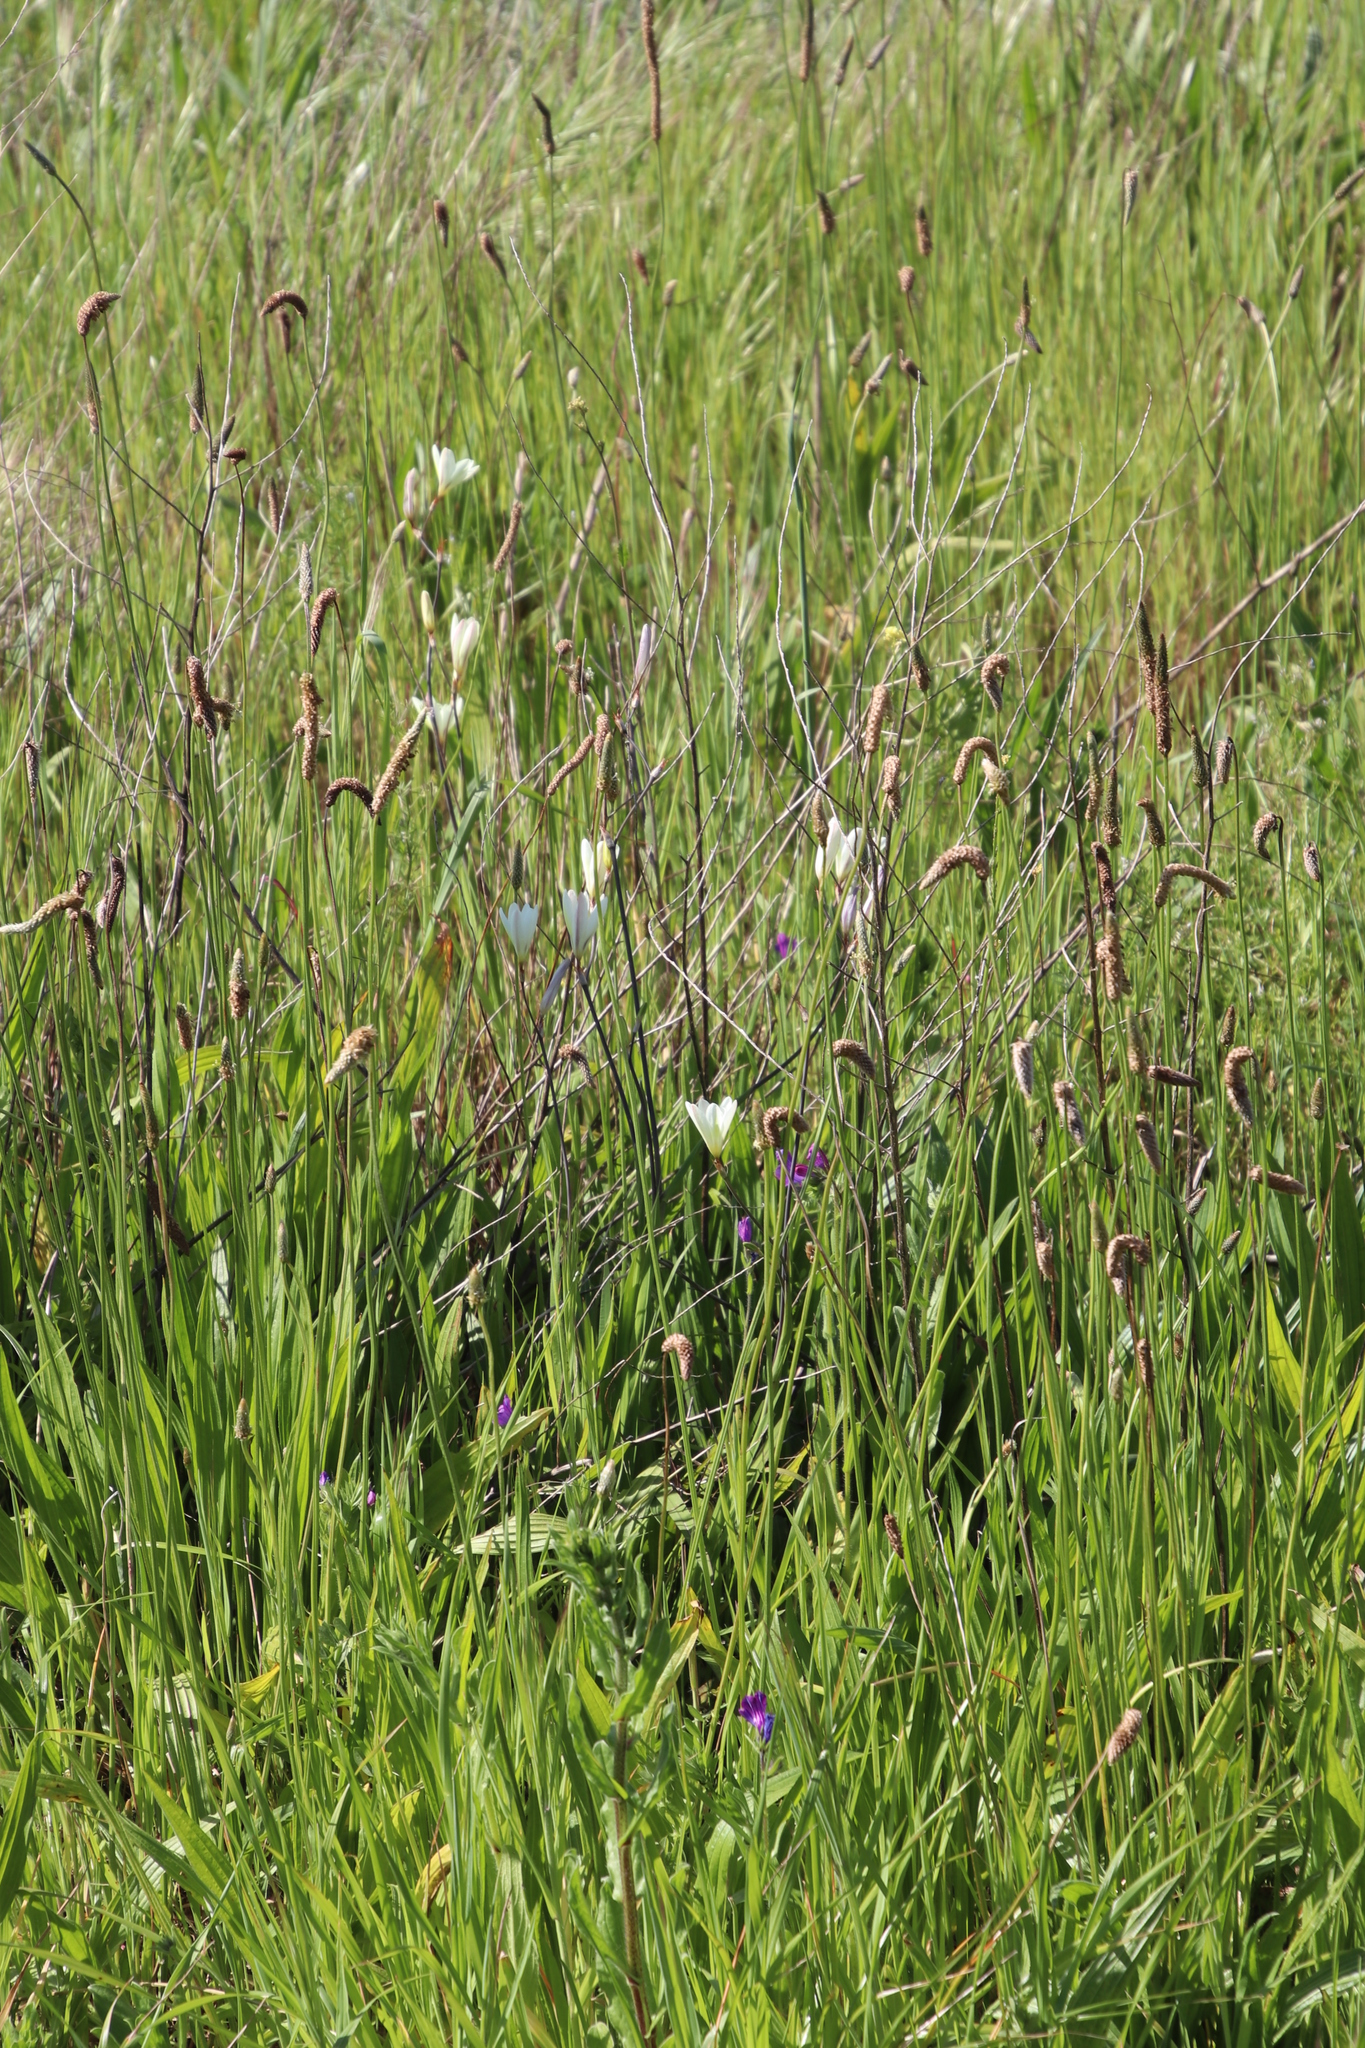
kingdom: Plantae
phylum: Tracheophyta
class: Liliopsida
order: Asparagales
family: Iridaceae
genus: Sparaxis
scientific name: Sparaxis bulbifera
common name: Harlequin-flower
